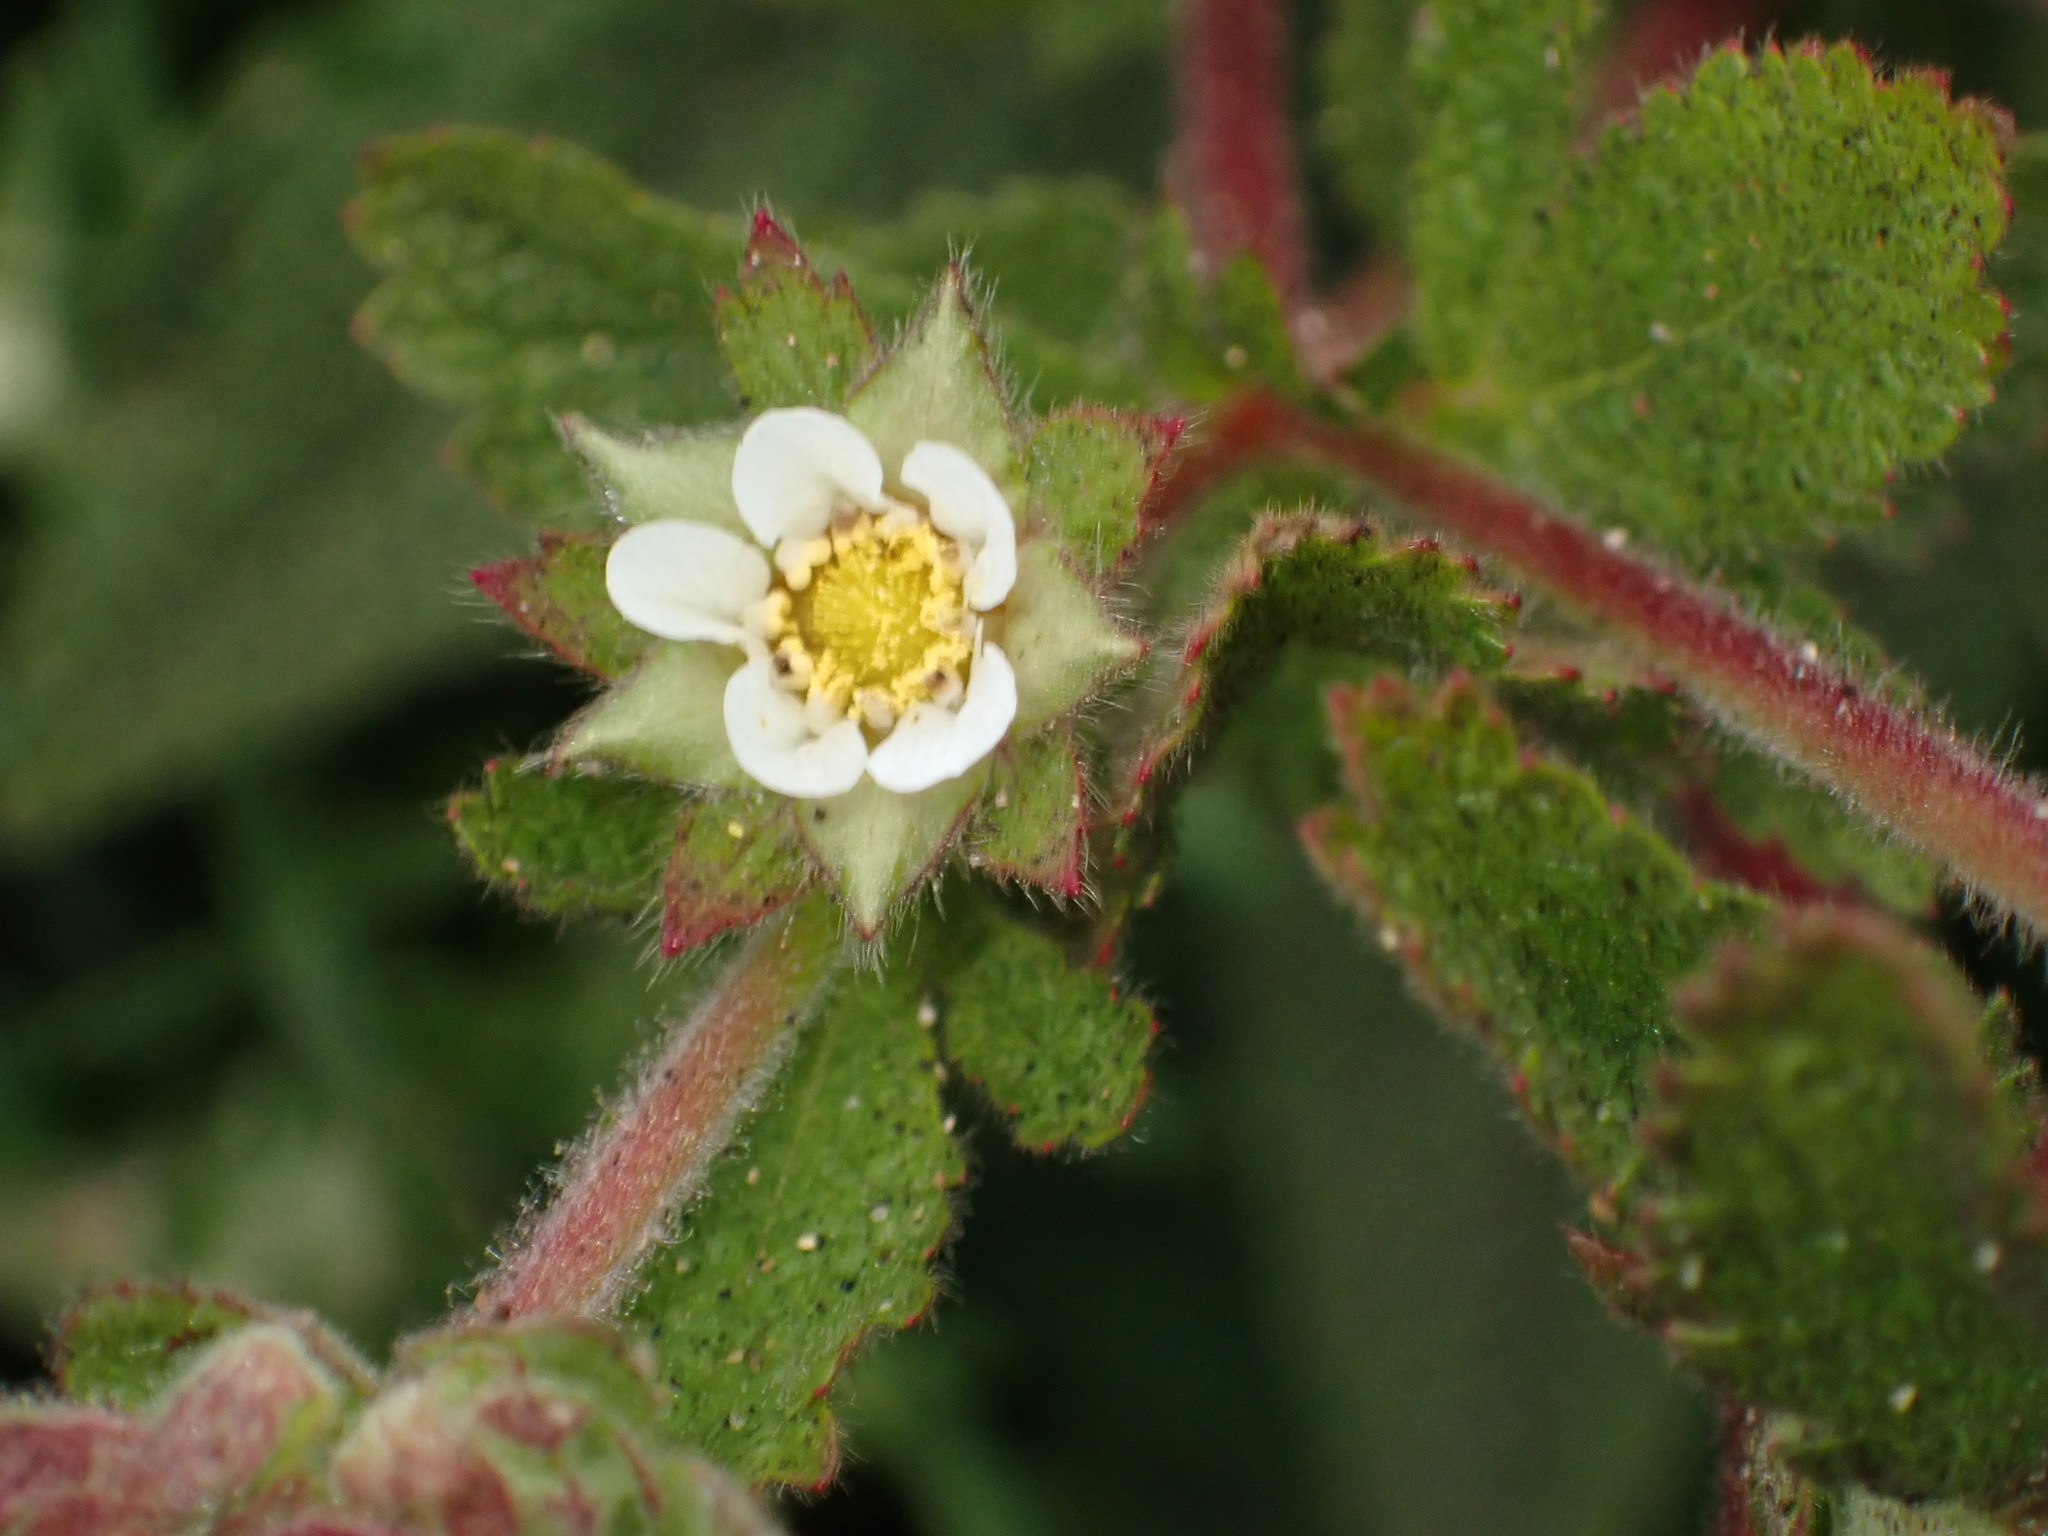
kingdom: Plantae
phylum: Tracheophyta
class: Magnoliopsida
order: Rosales
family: Rosaceae
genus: Drymocallis
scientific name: Drymocallis glandulosa
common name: Sticky cinquefoil
